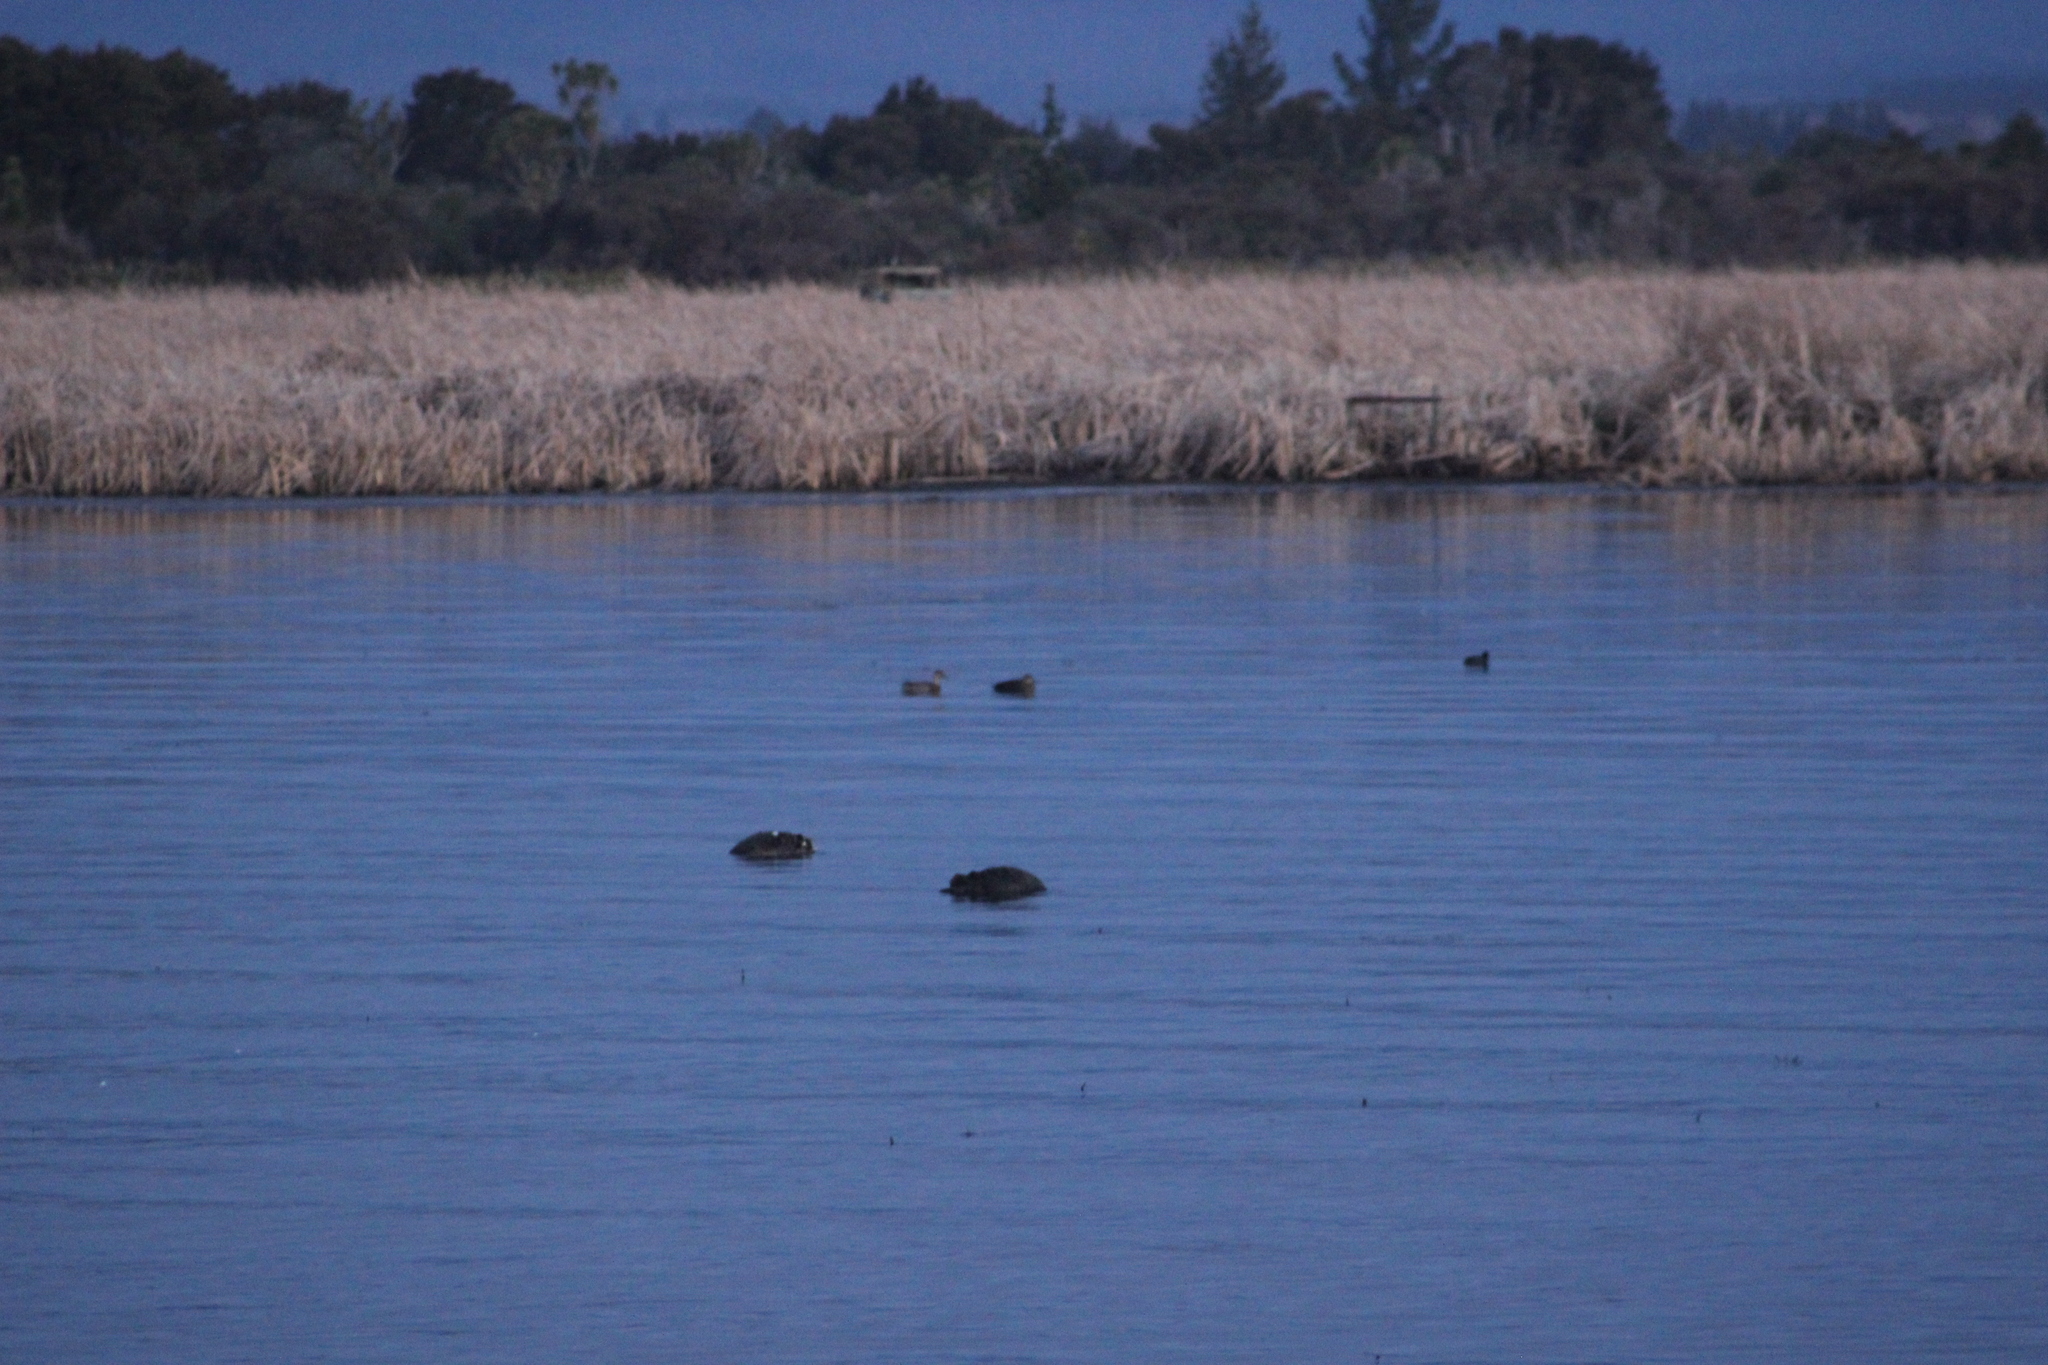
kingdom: Animalia
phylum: Chordata
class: Aves
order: Anseriformes
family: Anatidae
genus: Anas
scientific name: Anas gracilis
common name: Grey teal
